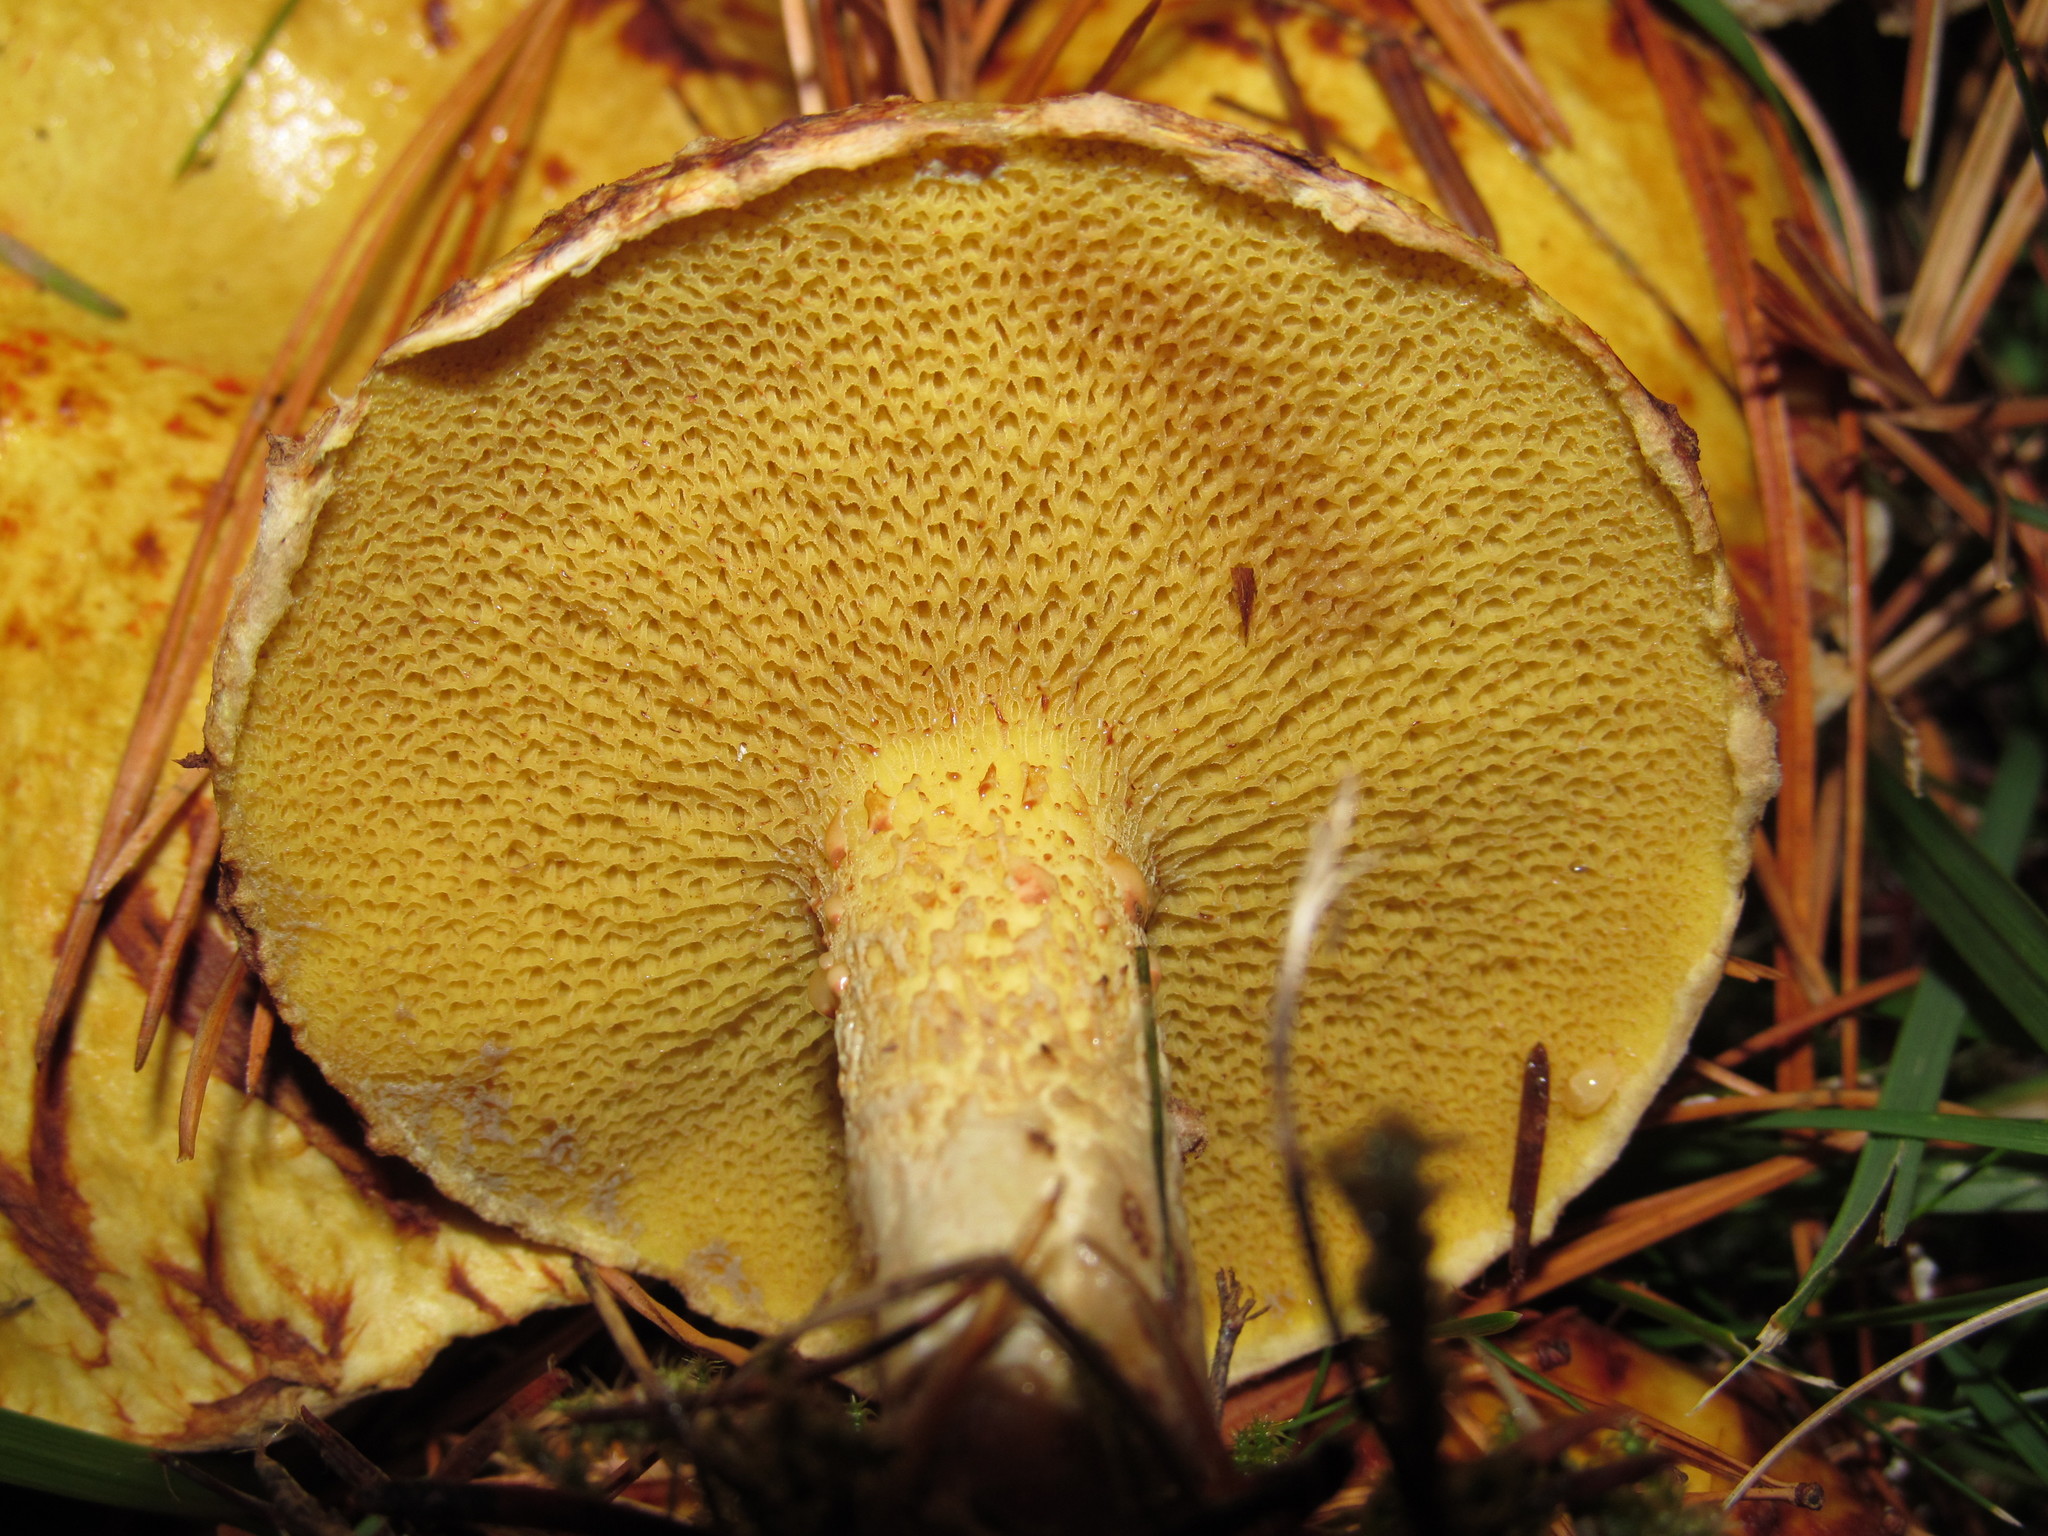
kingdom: Fungi
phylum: Basidiomycota
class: Agaricomycetes
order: Boletales
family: Suillaceae
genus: Suillus
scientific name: Suillus americanus
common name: Chicken fat mushroom
